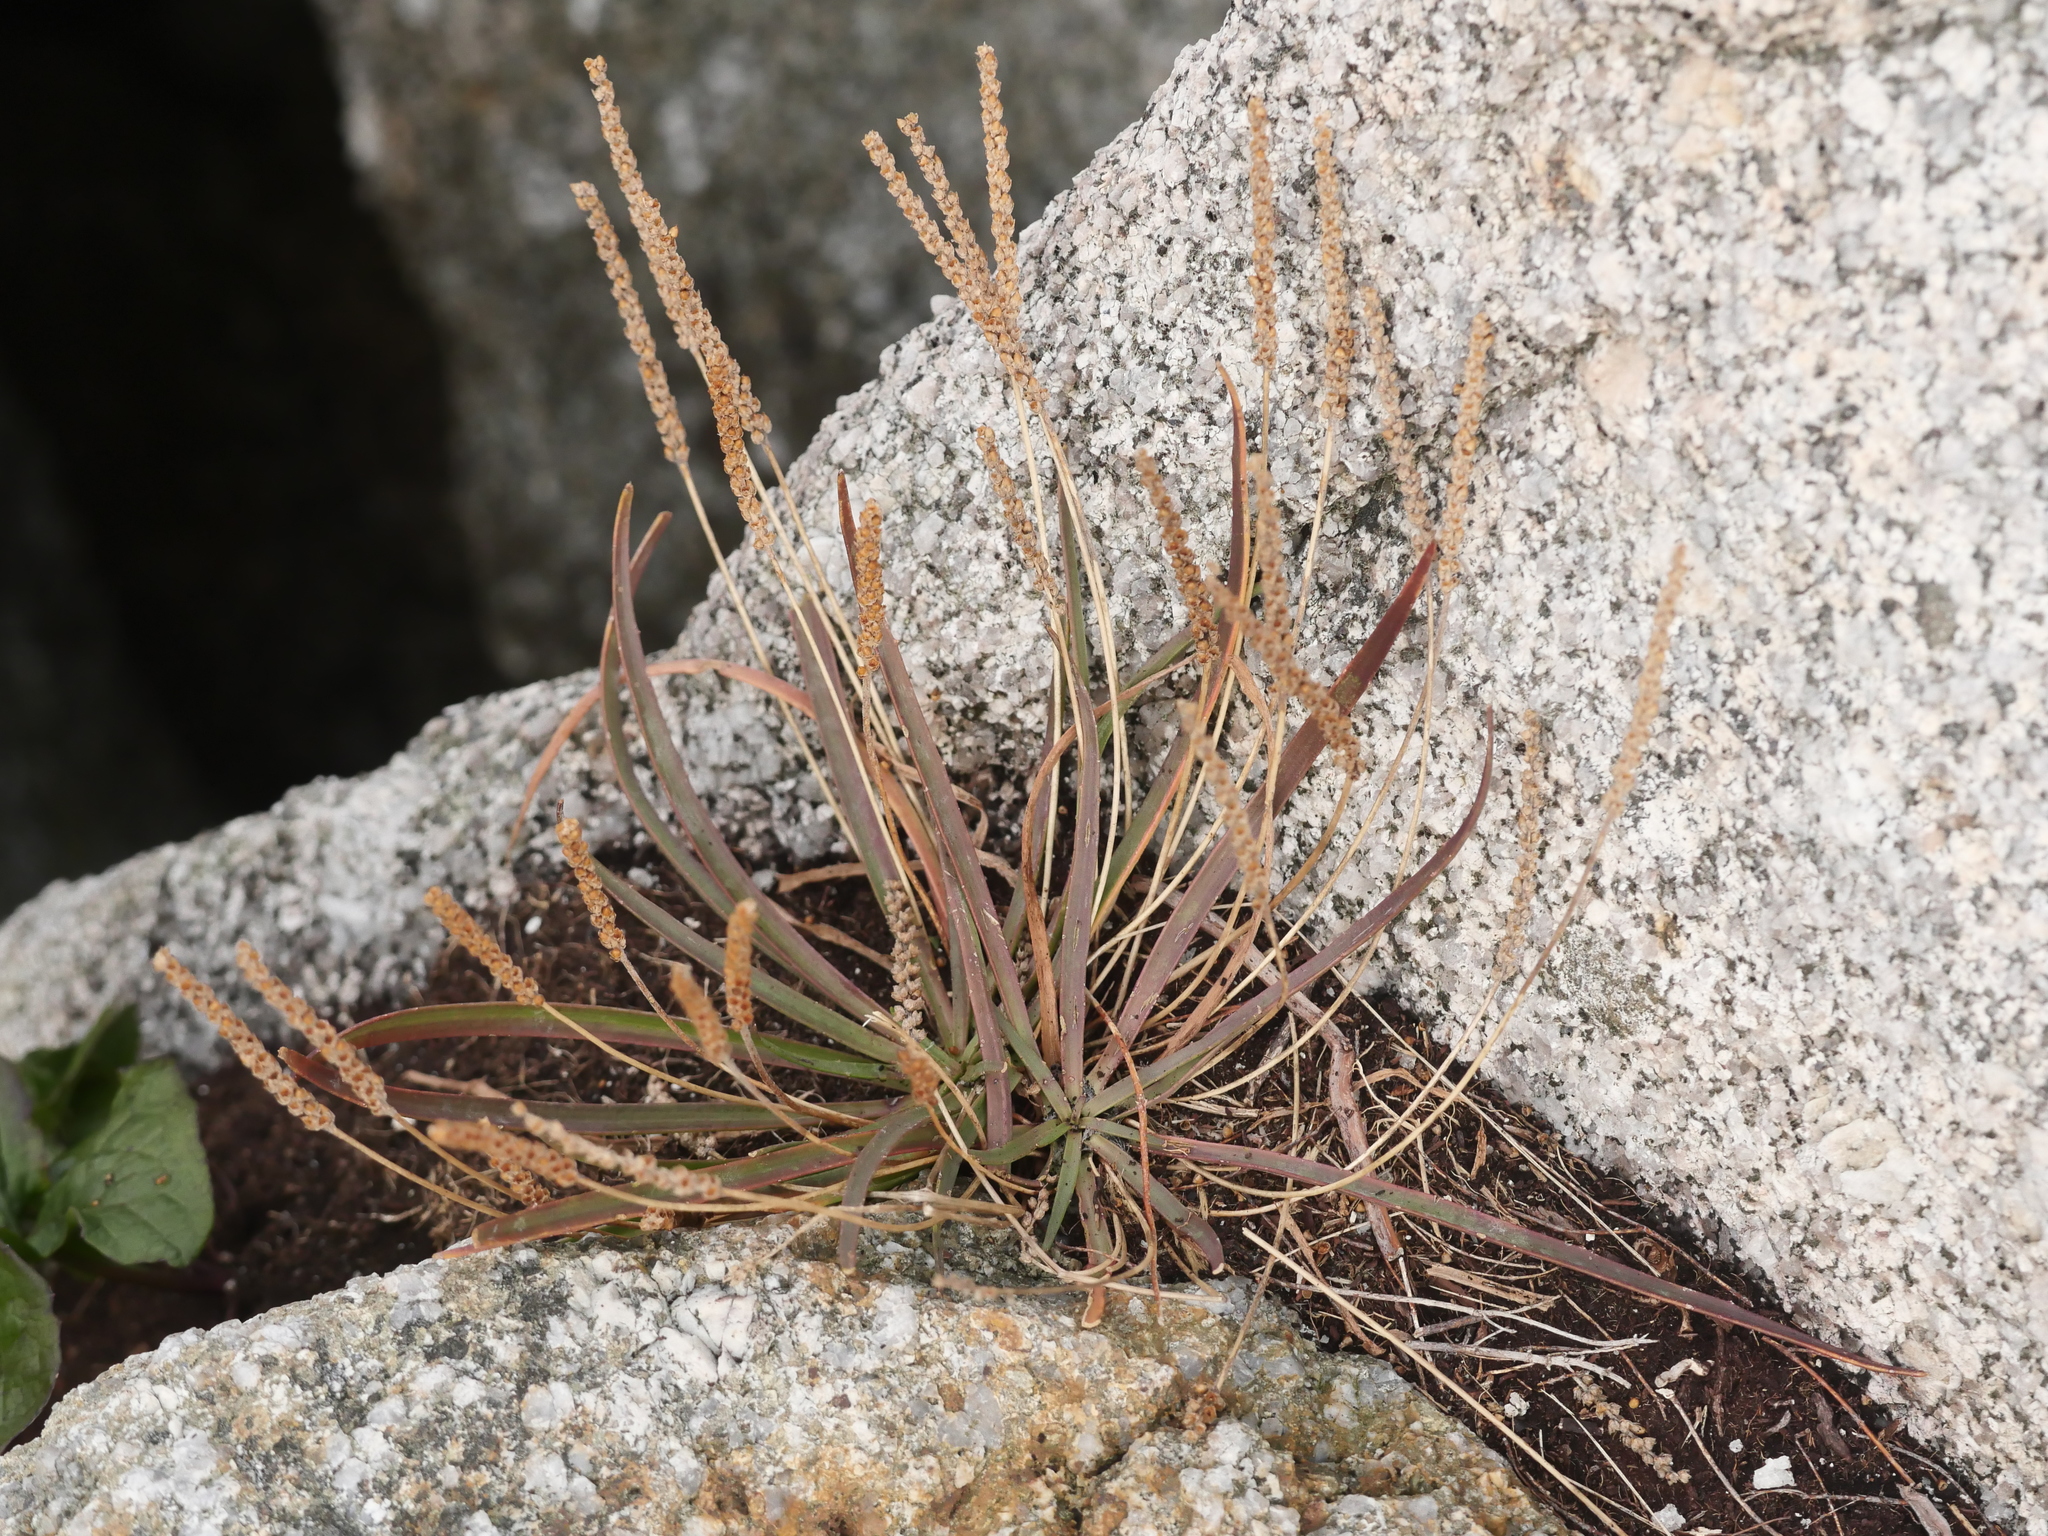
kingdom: Plantae
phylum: Tracheophyta
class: Magnoliopsida
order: Lamiales
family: Plantaginaceae
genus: Plantago
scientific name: Plantago maritima
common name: Sea plantain
